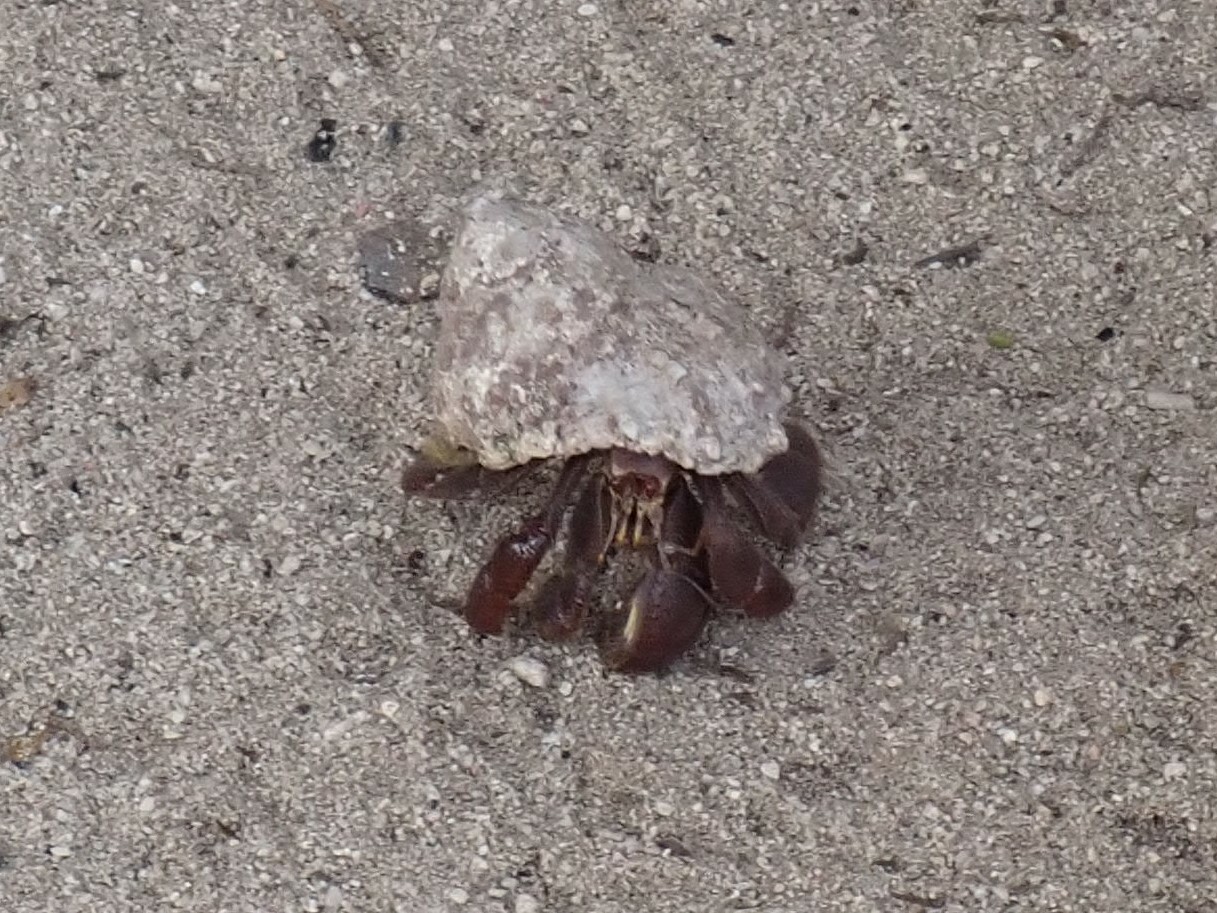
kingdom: Animalia
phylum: Arthropoda
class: Malacostraca
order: Decapoda
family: Coenobitidae
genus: Coenobita
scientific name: Coenobita clypeatus
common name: Caribbean hermit crab
